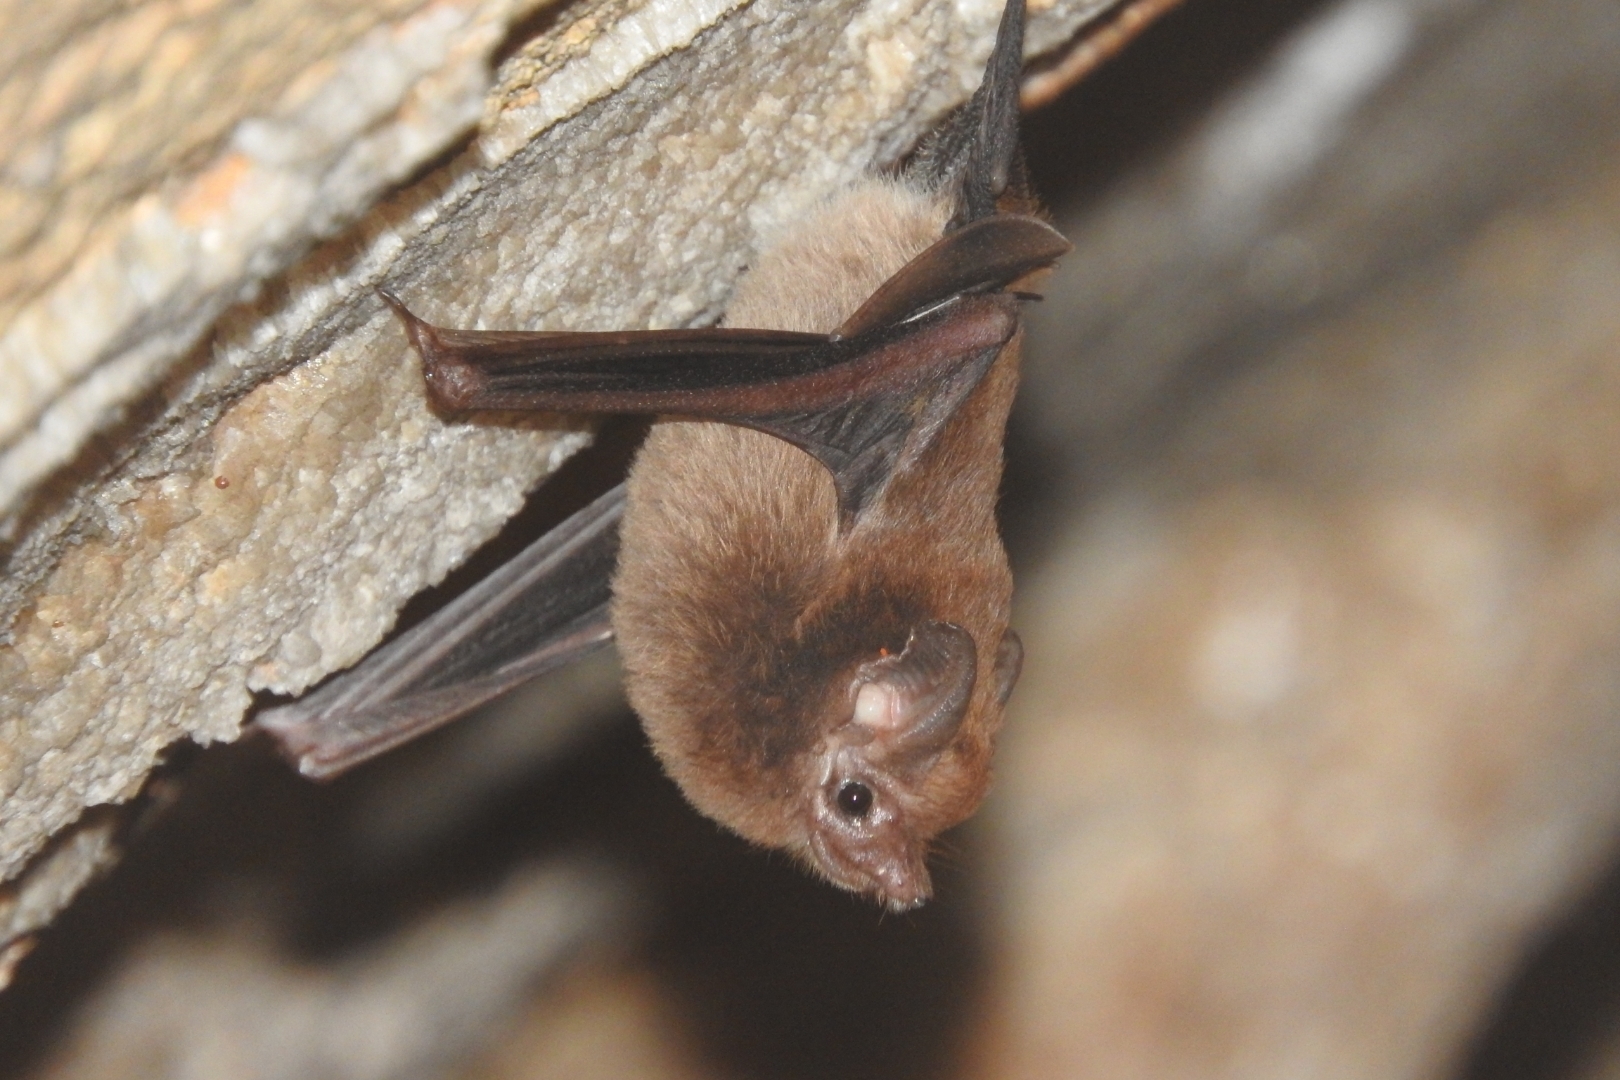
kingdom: Animalia
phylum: Chordata
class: Mammalia
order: Chiroptera
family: Emballonuridae
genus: Peropteryx
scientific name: Peropteryx macrotis
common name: Lesser dog-like bat
